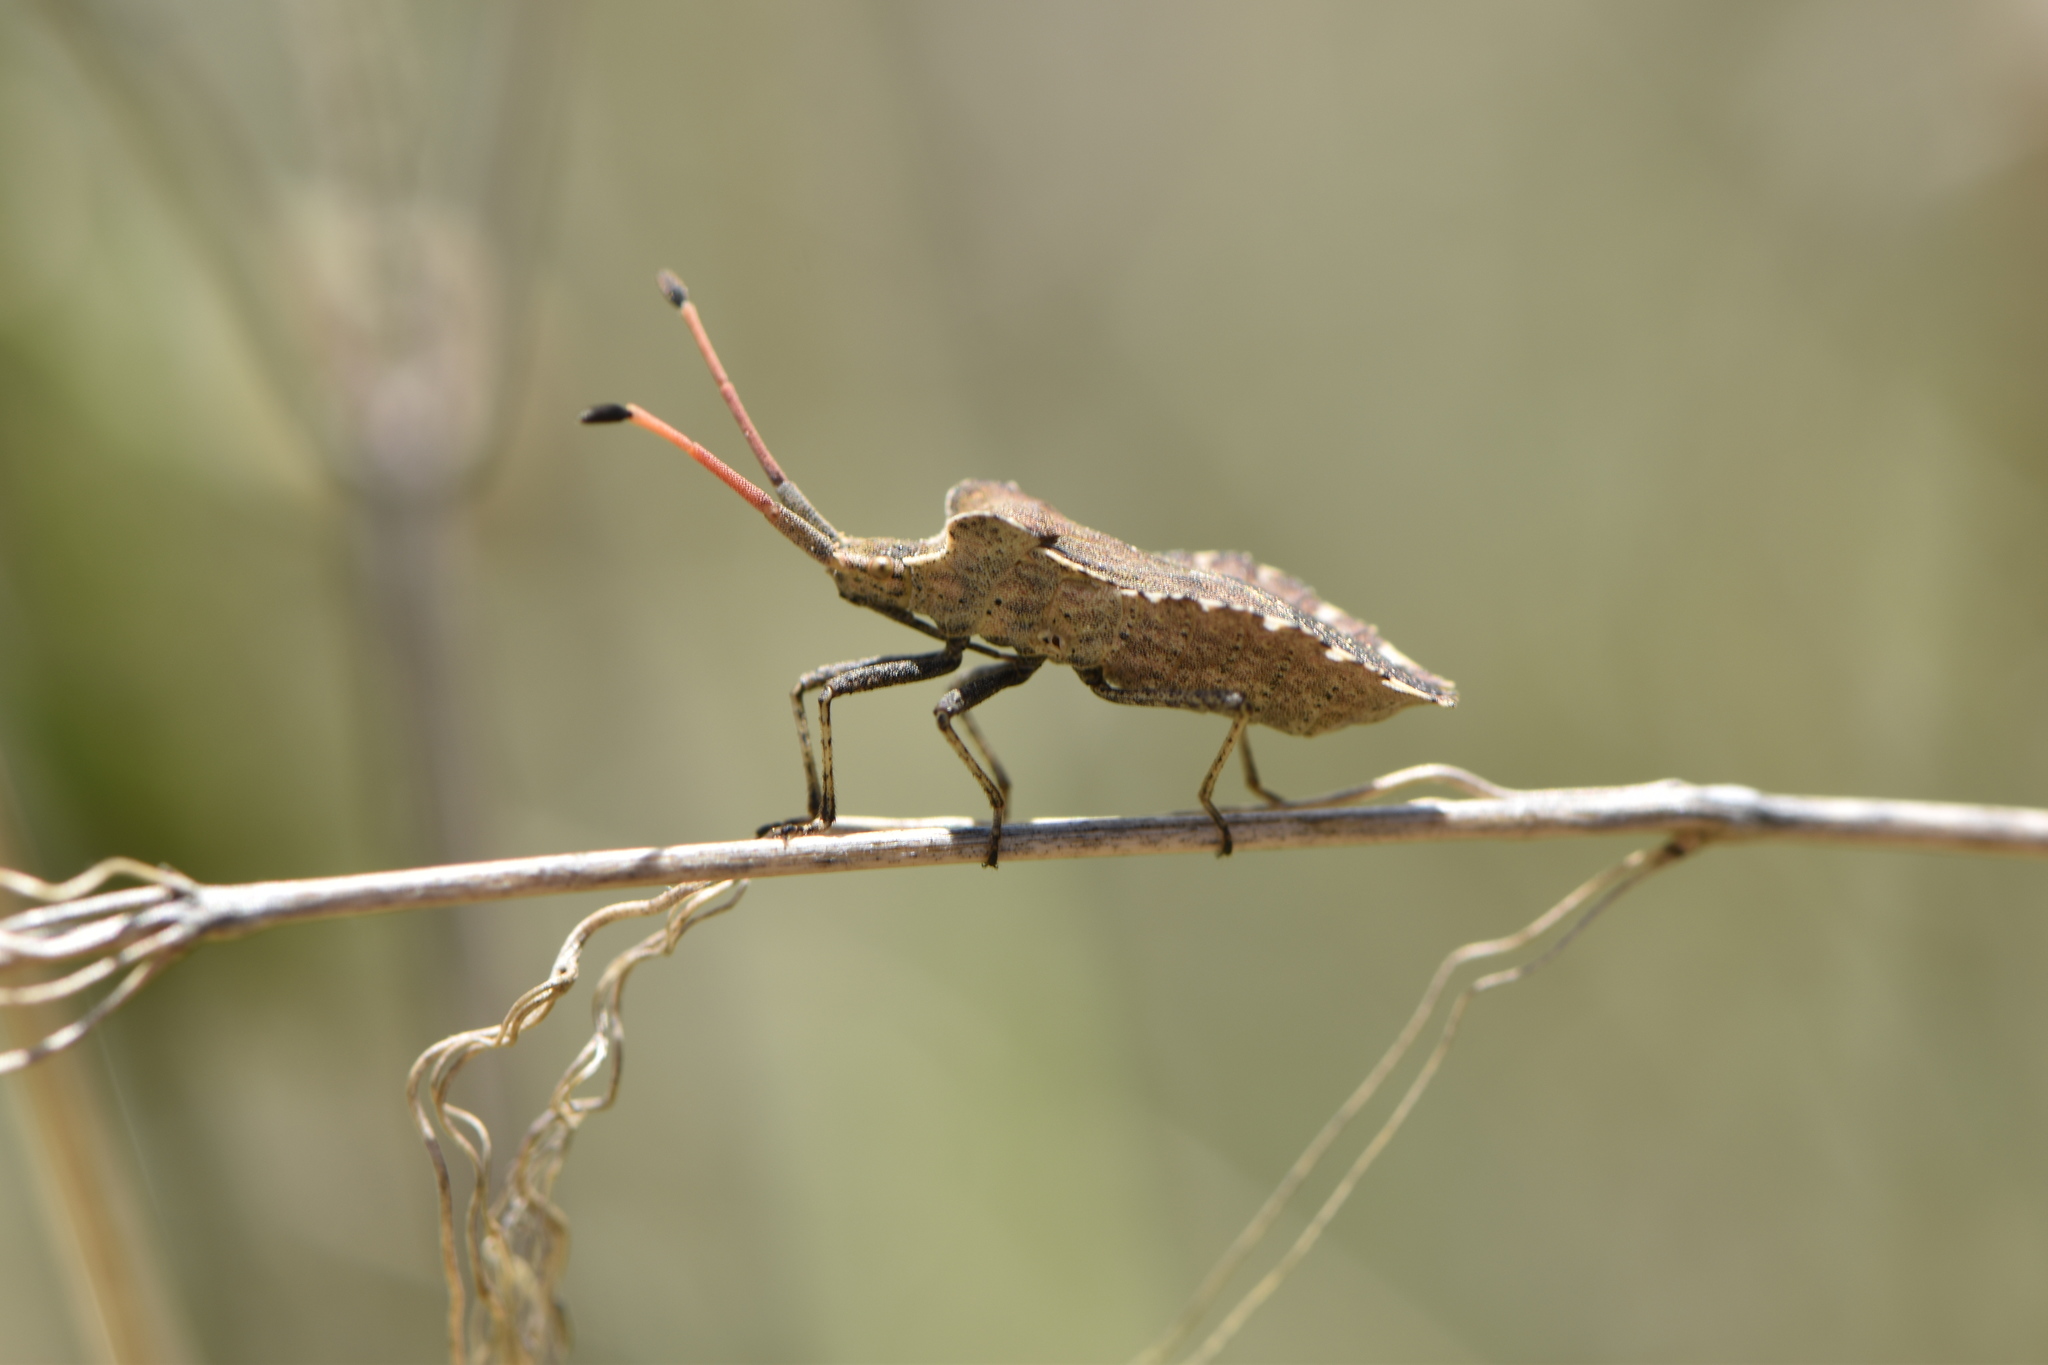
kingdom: Animalia
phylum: Arthropoda
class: Insecta
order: Hemiptera
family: Coreidae
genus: Enoplops
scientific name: Enoplops scapha
